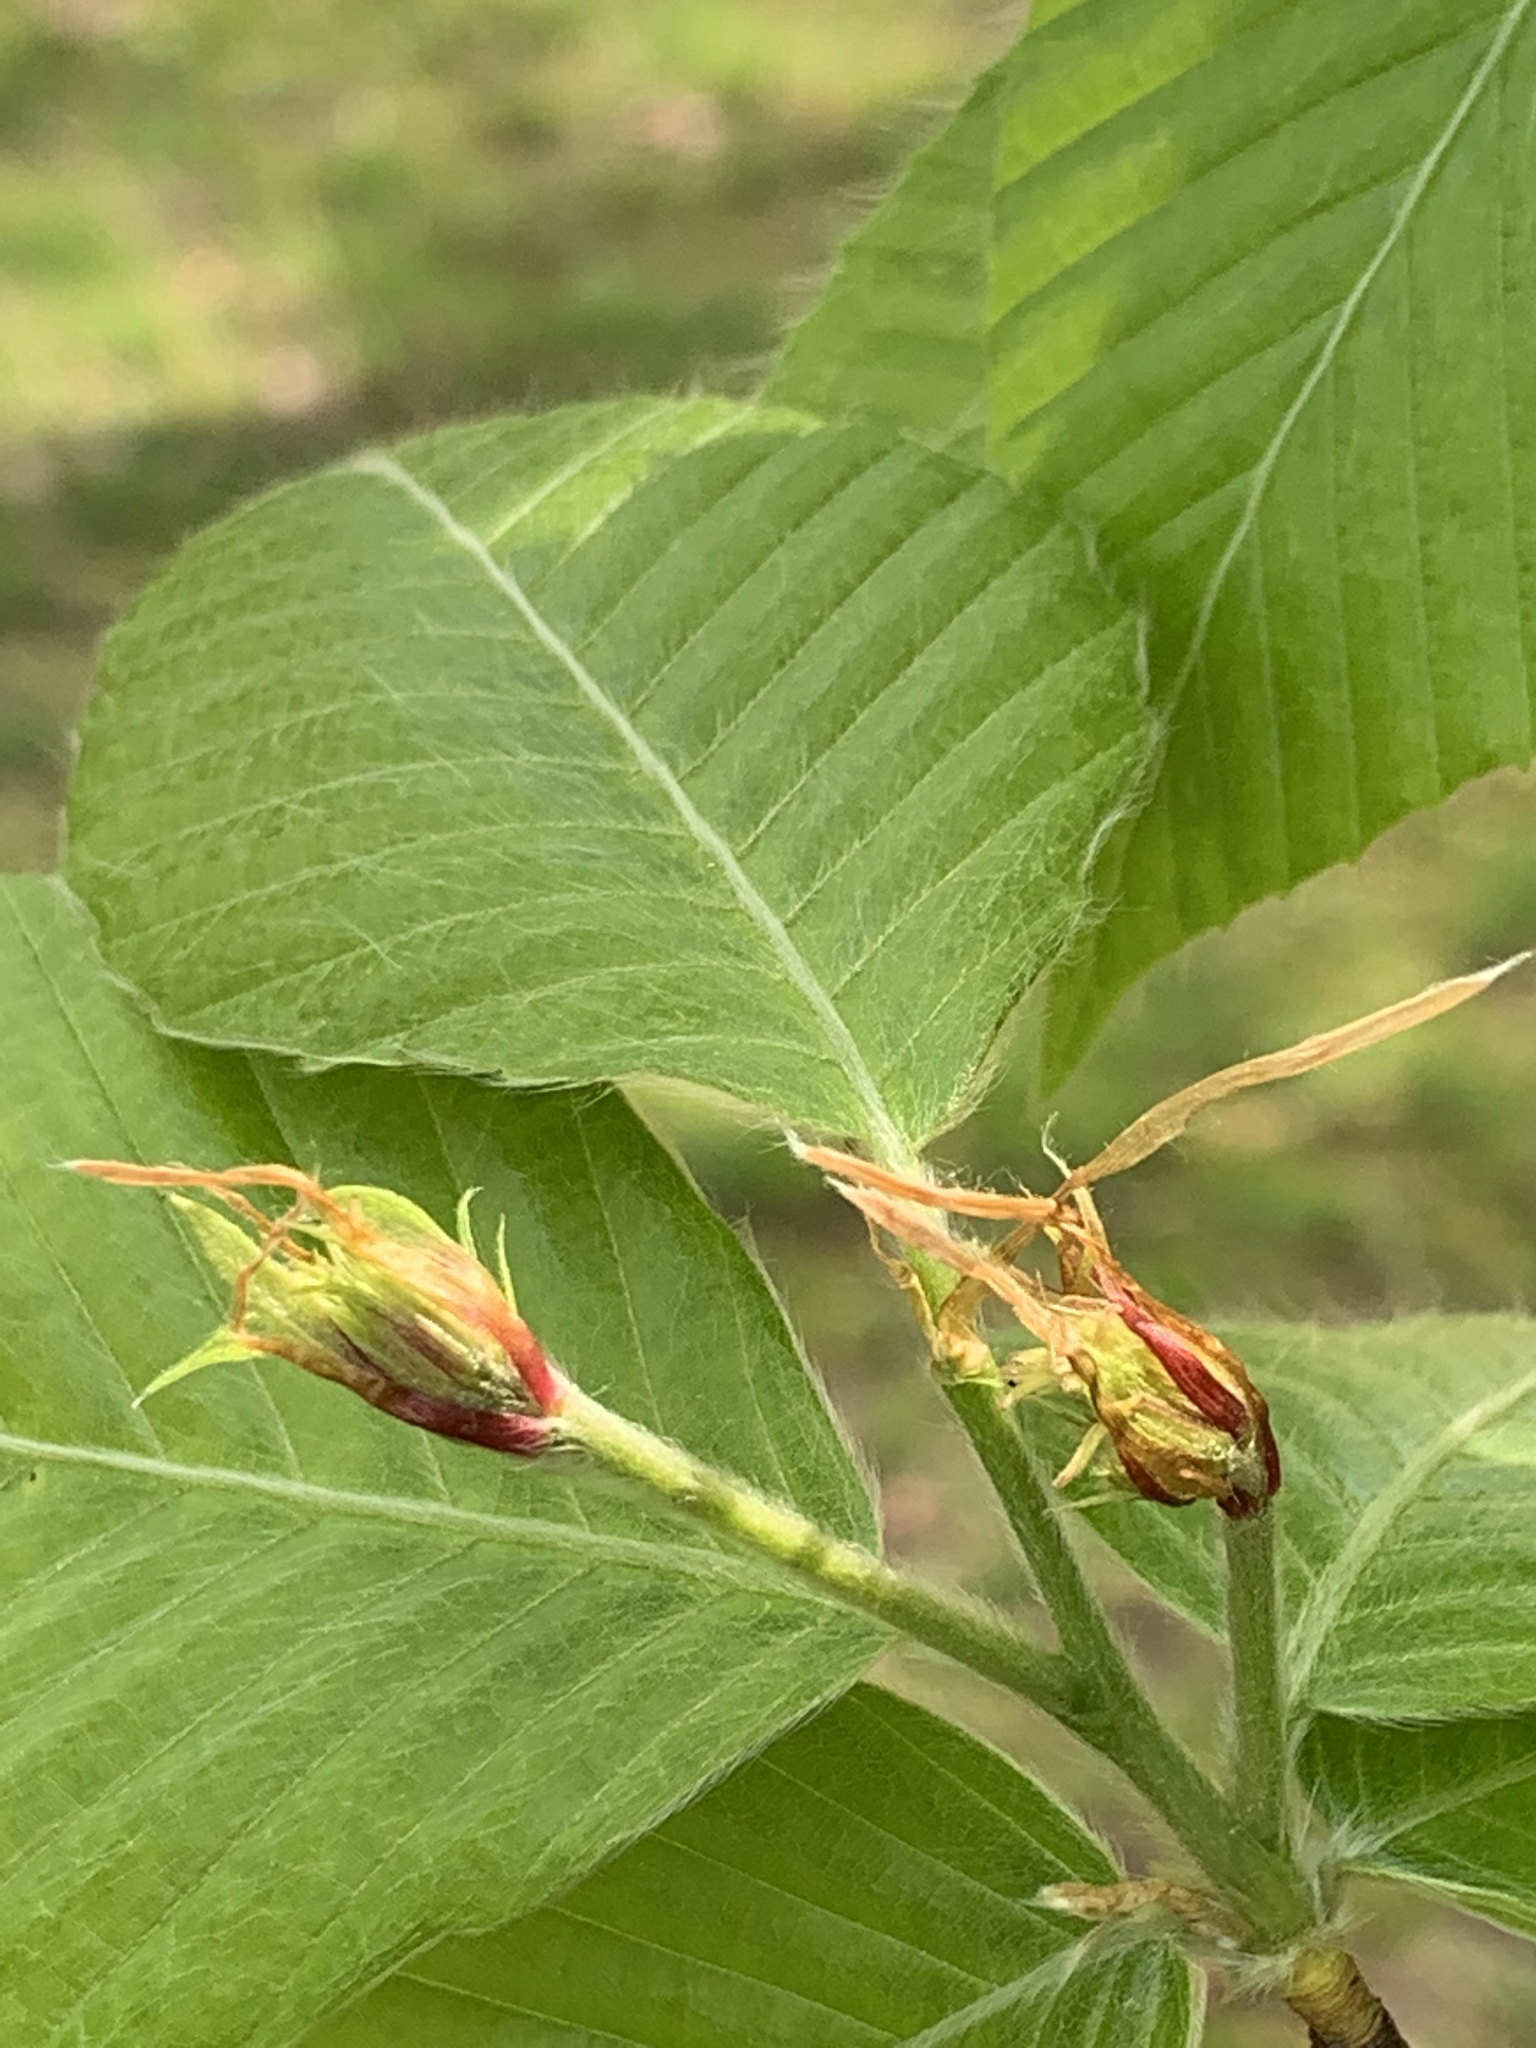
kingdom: Plantae
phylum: Tracheophyta
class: Magnoliopsida
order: Fagales
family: Fagaceae
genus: Fagus
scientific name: Fagus grandifolia
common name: American beech
